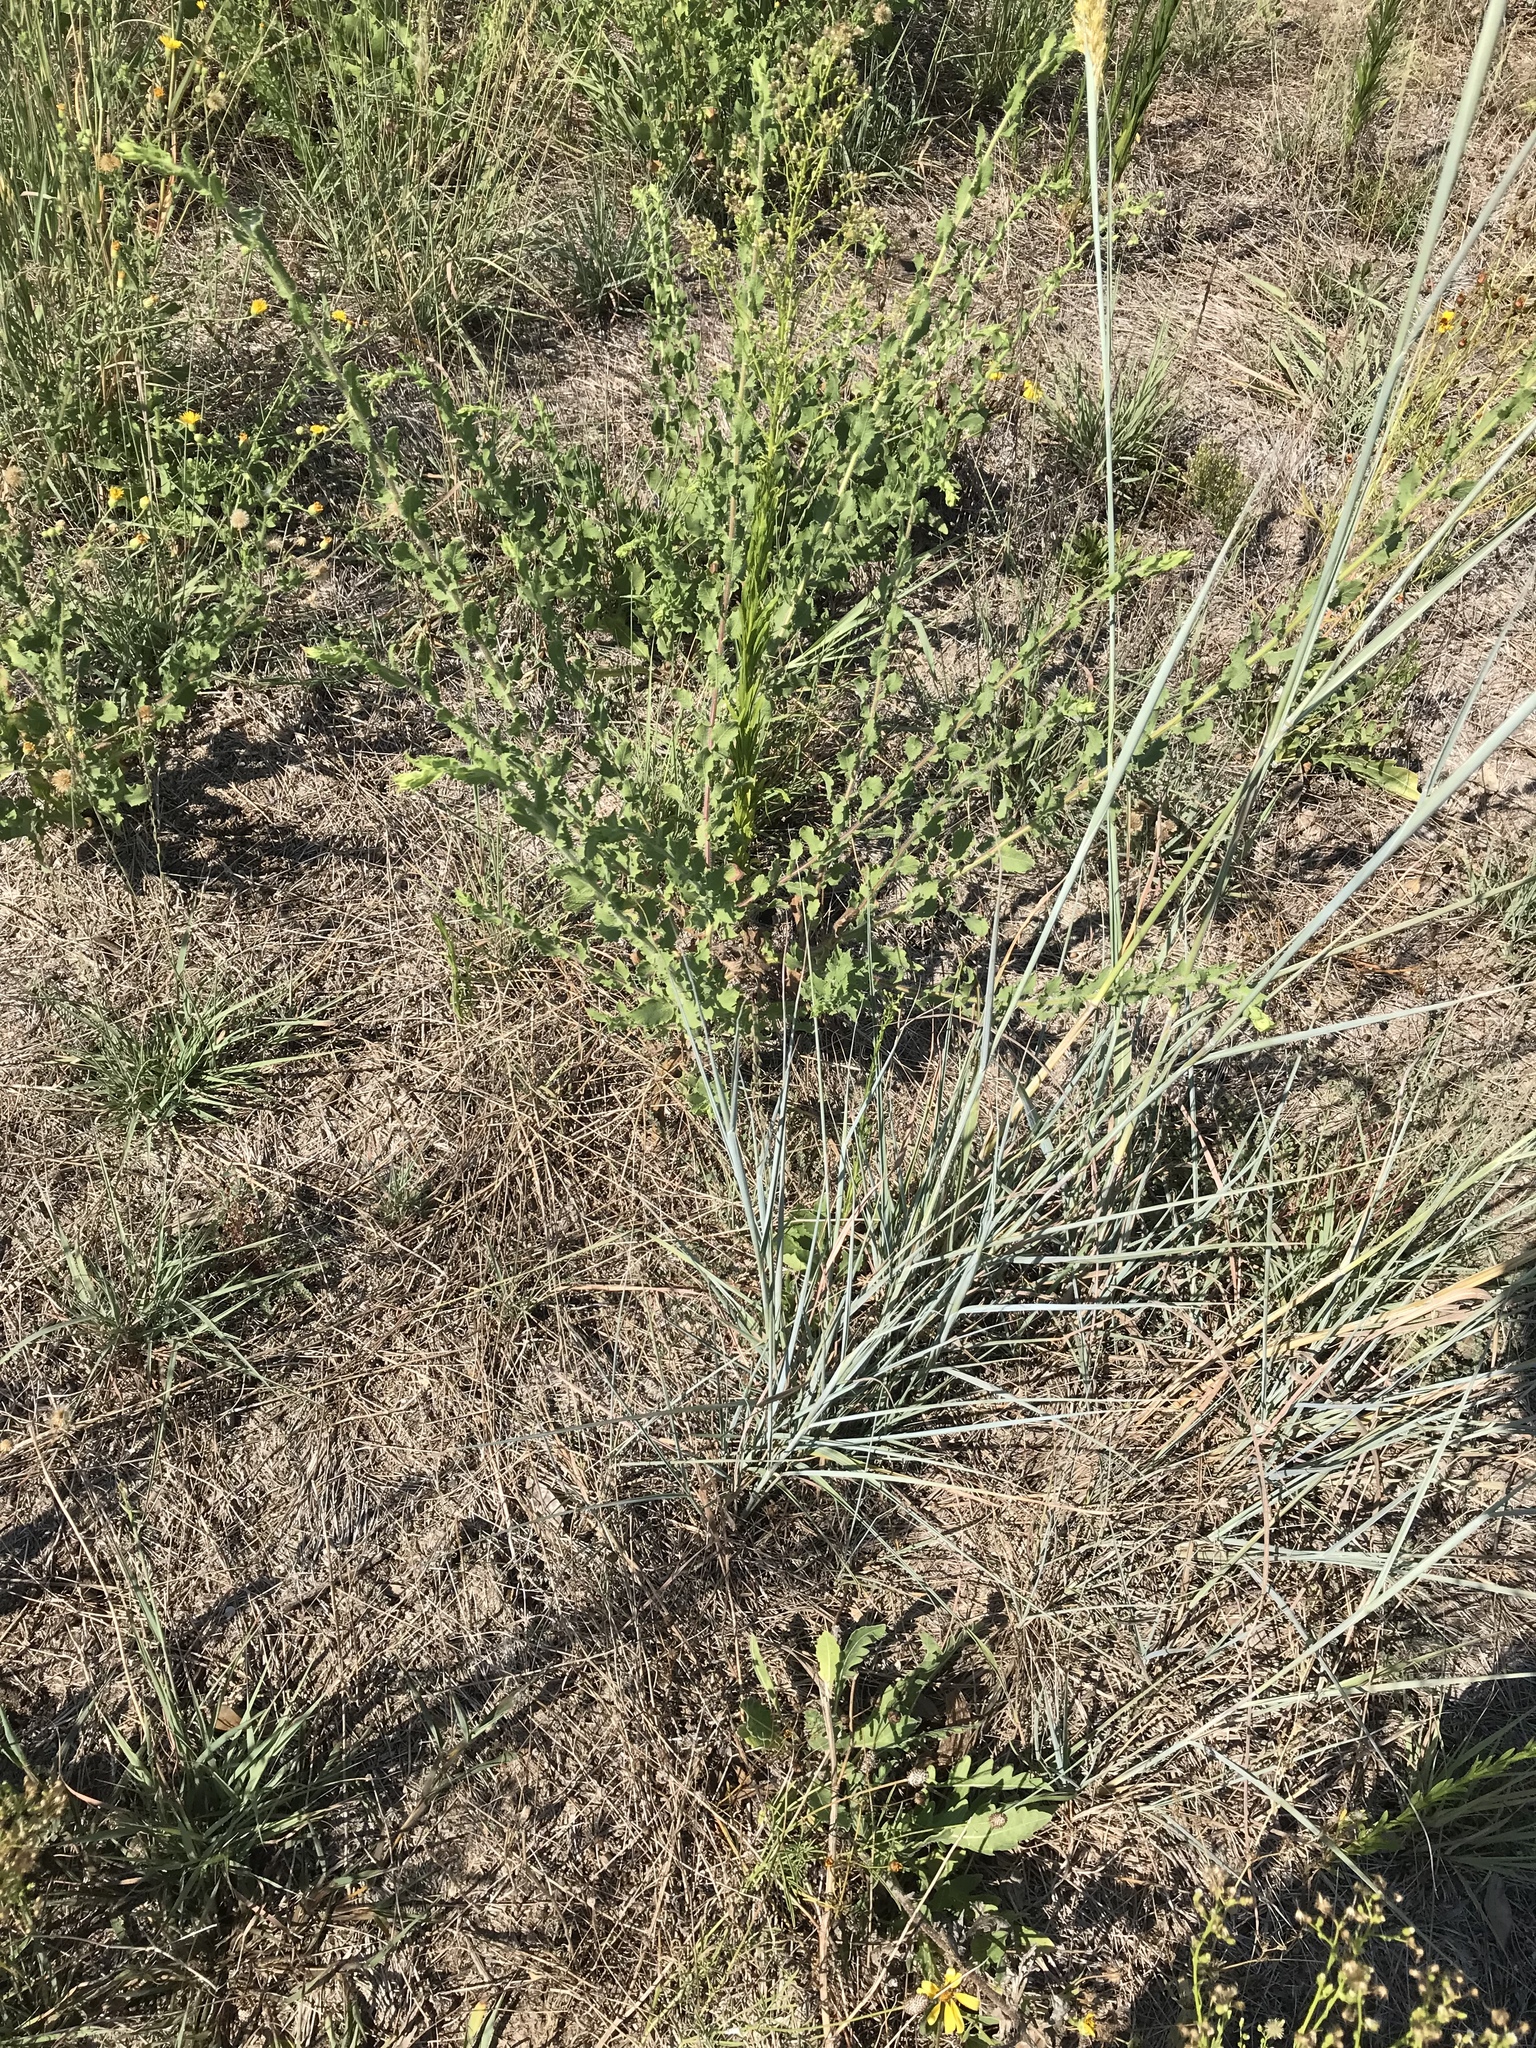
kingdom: Plantae
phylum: Tracheophyta
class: Liliopsida
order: Poales
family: Poaceae
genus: Sorghastrum
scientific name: Sorghastrum nutans
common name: Indian grass
